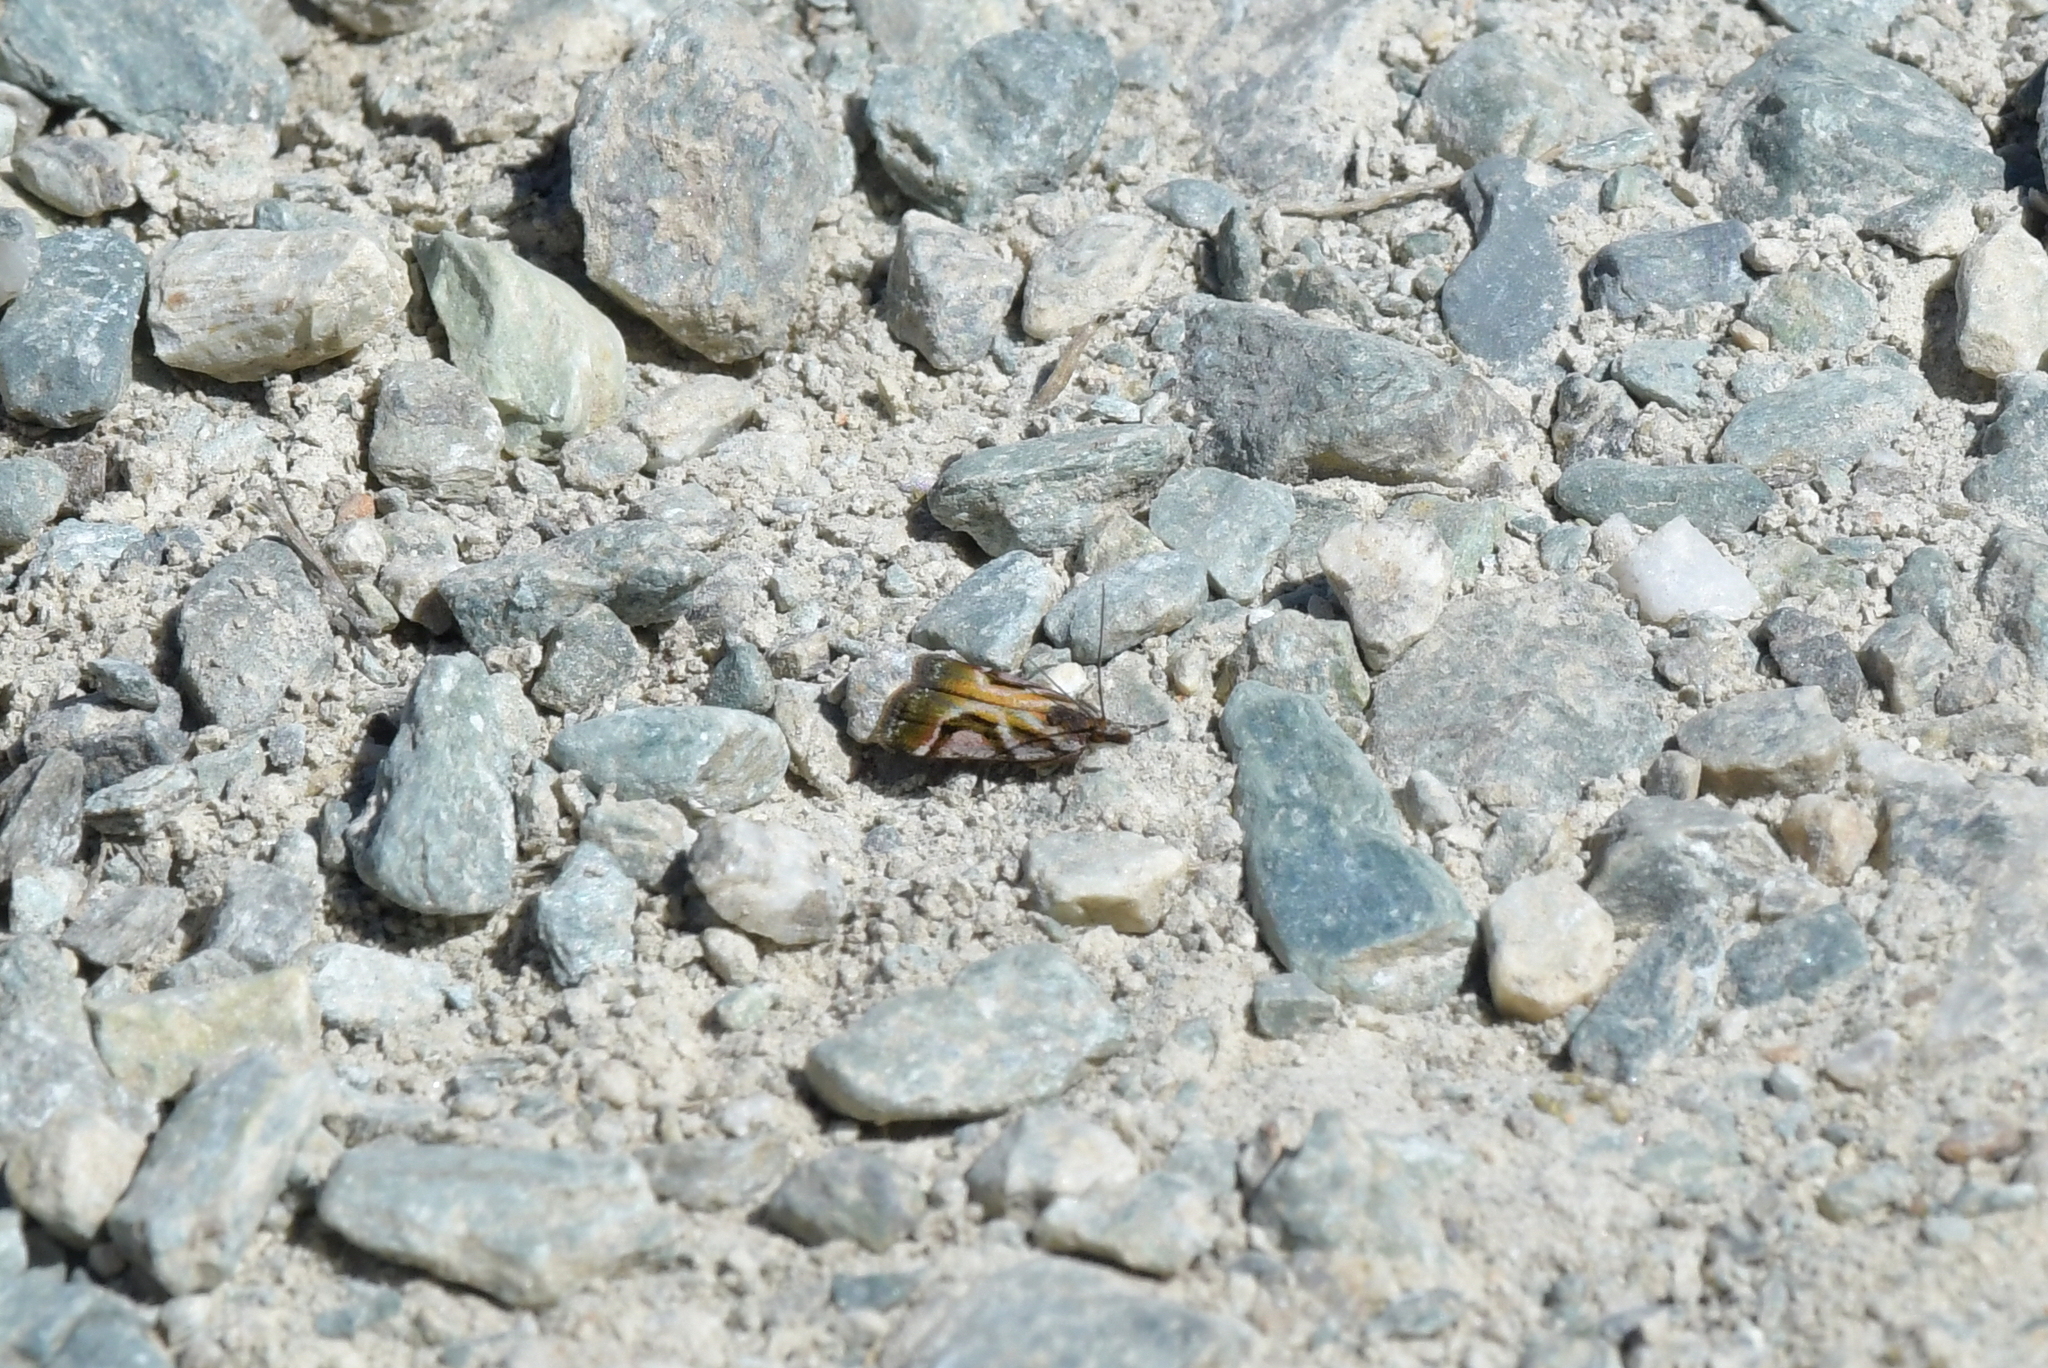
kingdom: Animalia
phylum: Arthropoda
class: Insecta
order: Lepidoptera
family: Crambidae
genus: Eudonia
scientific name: Eudonia hemicycla
